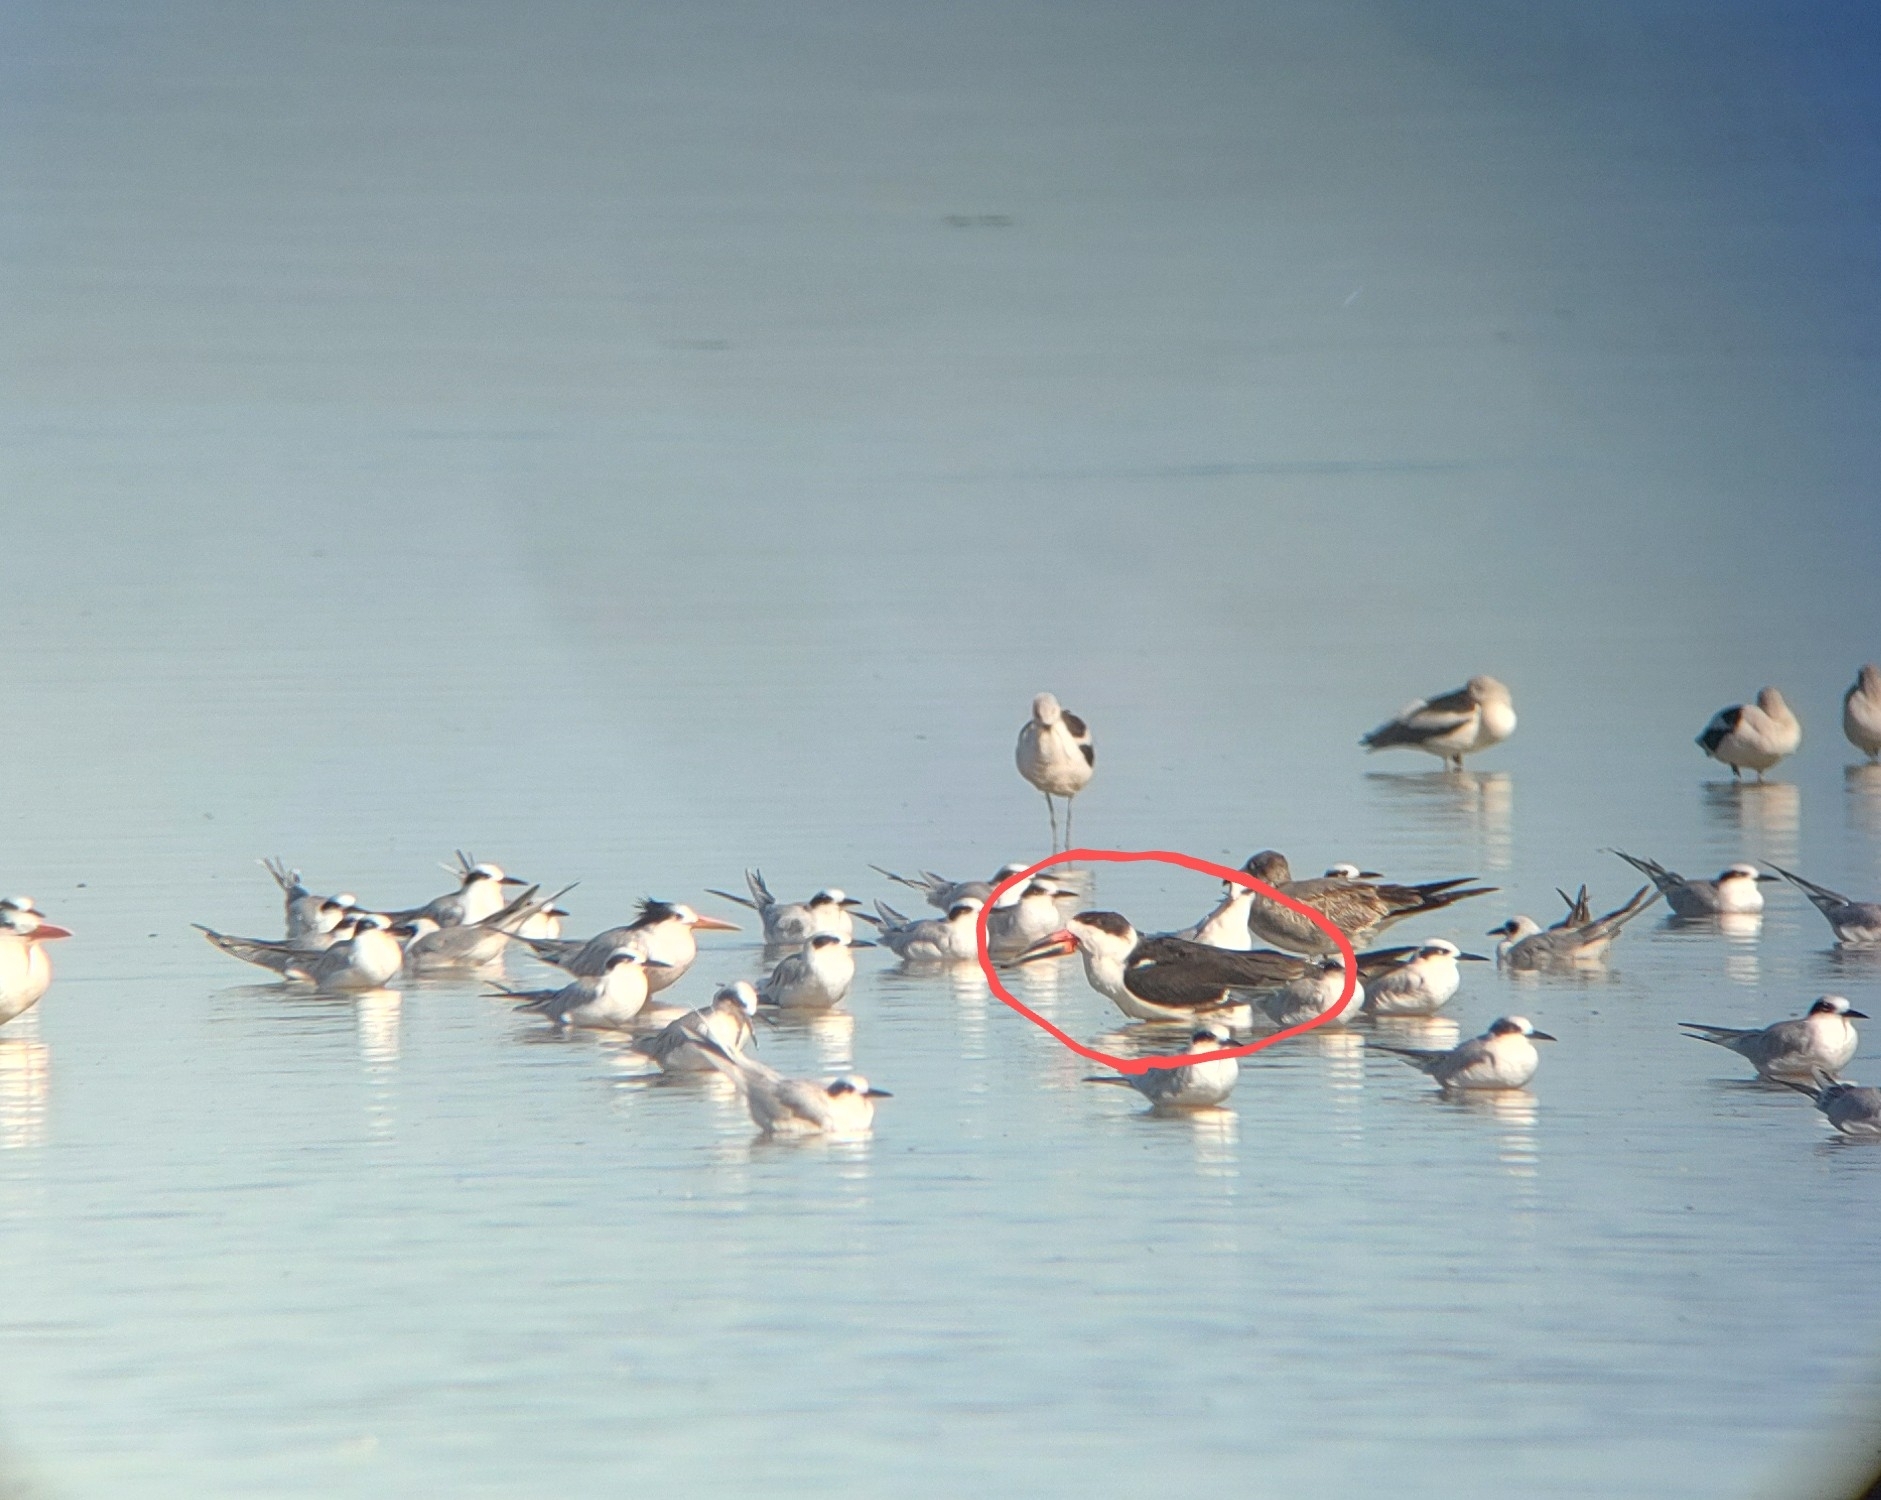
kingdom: Animalia
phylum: Chordata
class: Aves
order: Charadriiformes
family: Laridae
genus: Rynchops
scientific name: Rynchops niger
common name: Black skimmer
